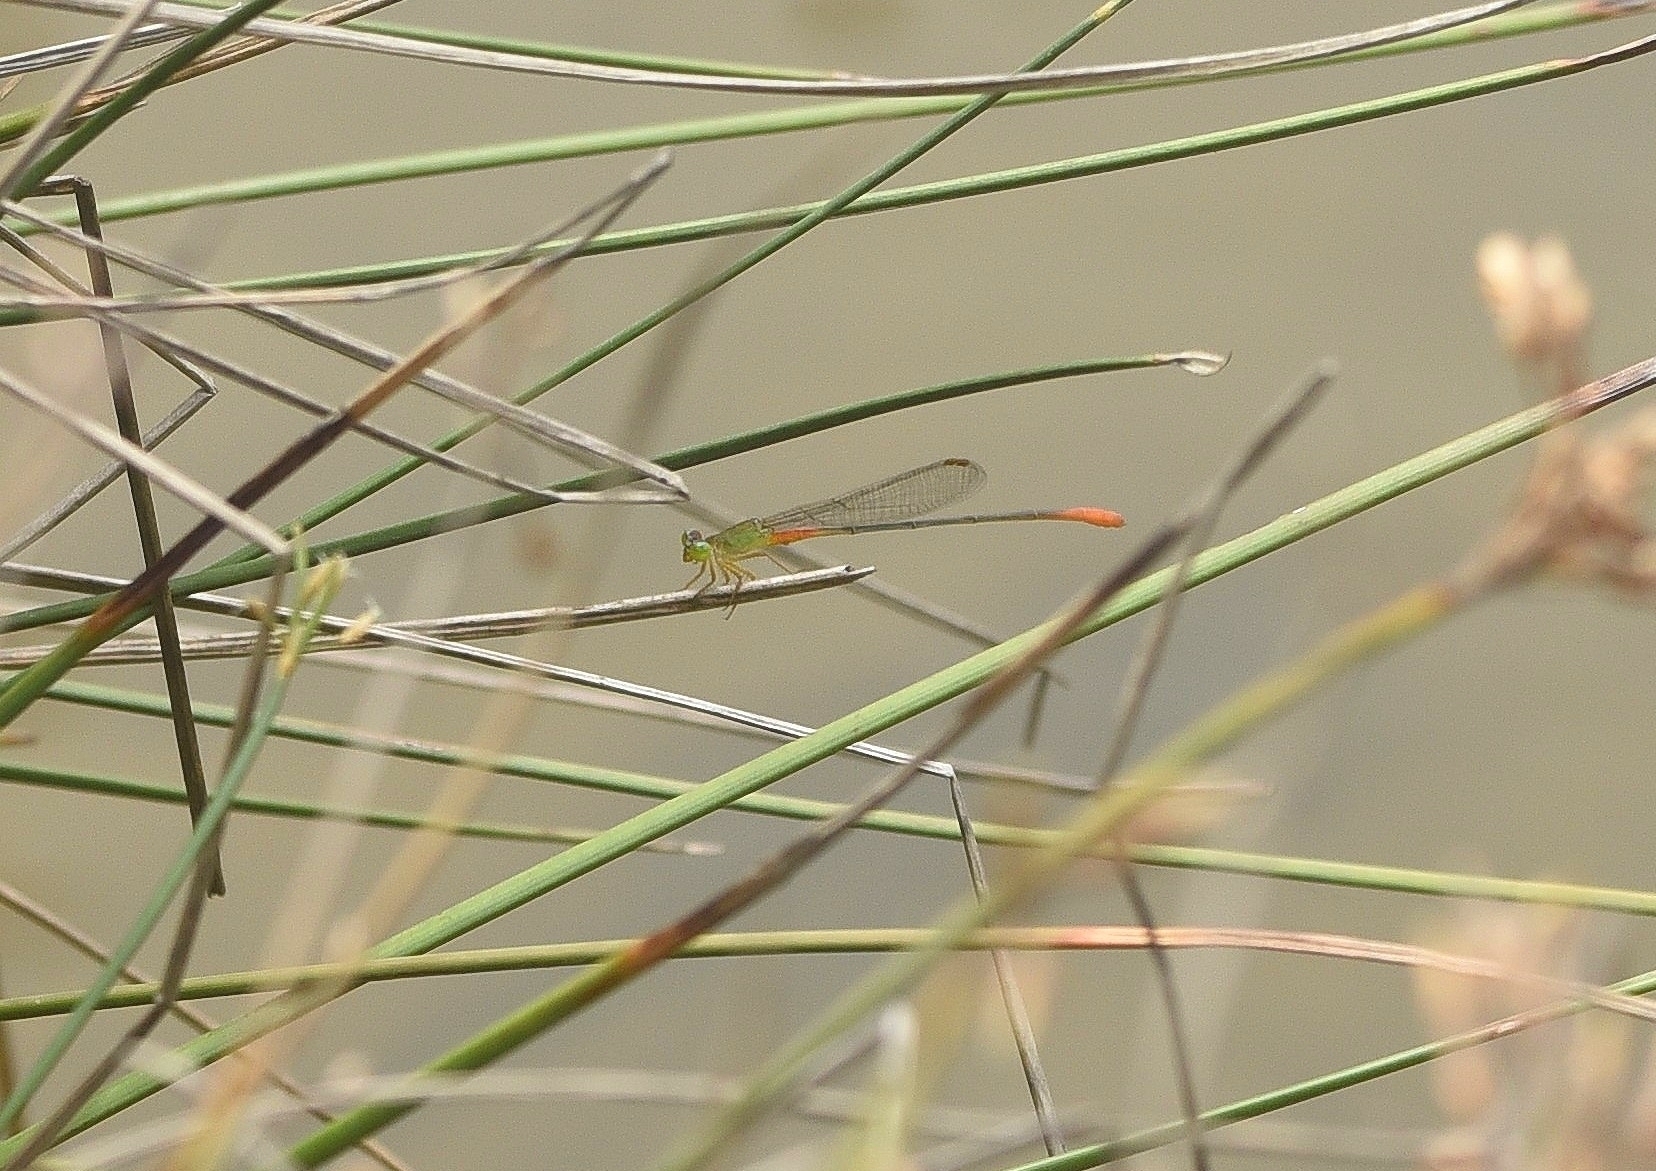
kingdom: Animalia
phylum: Arthropoda
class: Insecta
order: Odonata
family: Coenagrionidae
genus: Ceriagrion
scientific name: Ceriagrion cerinorubellum
